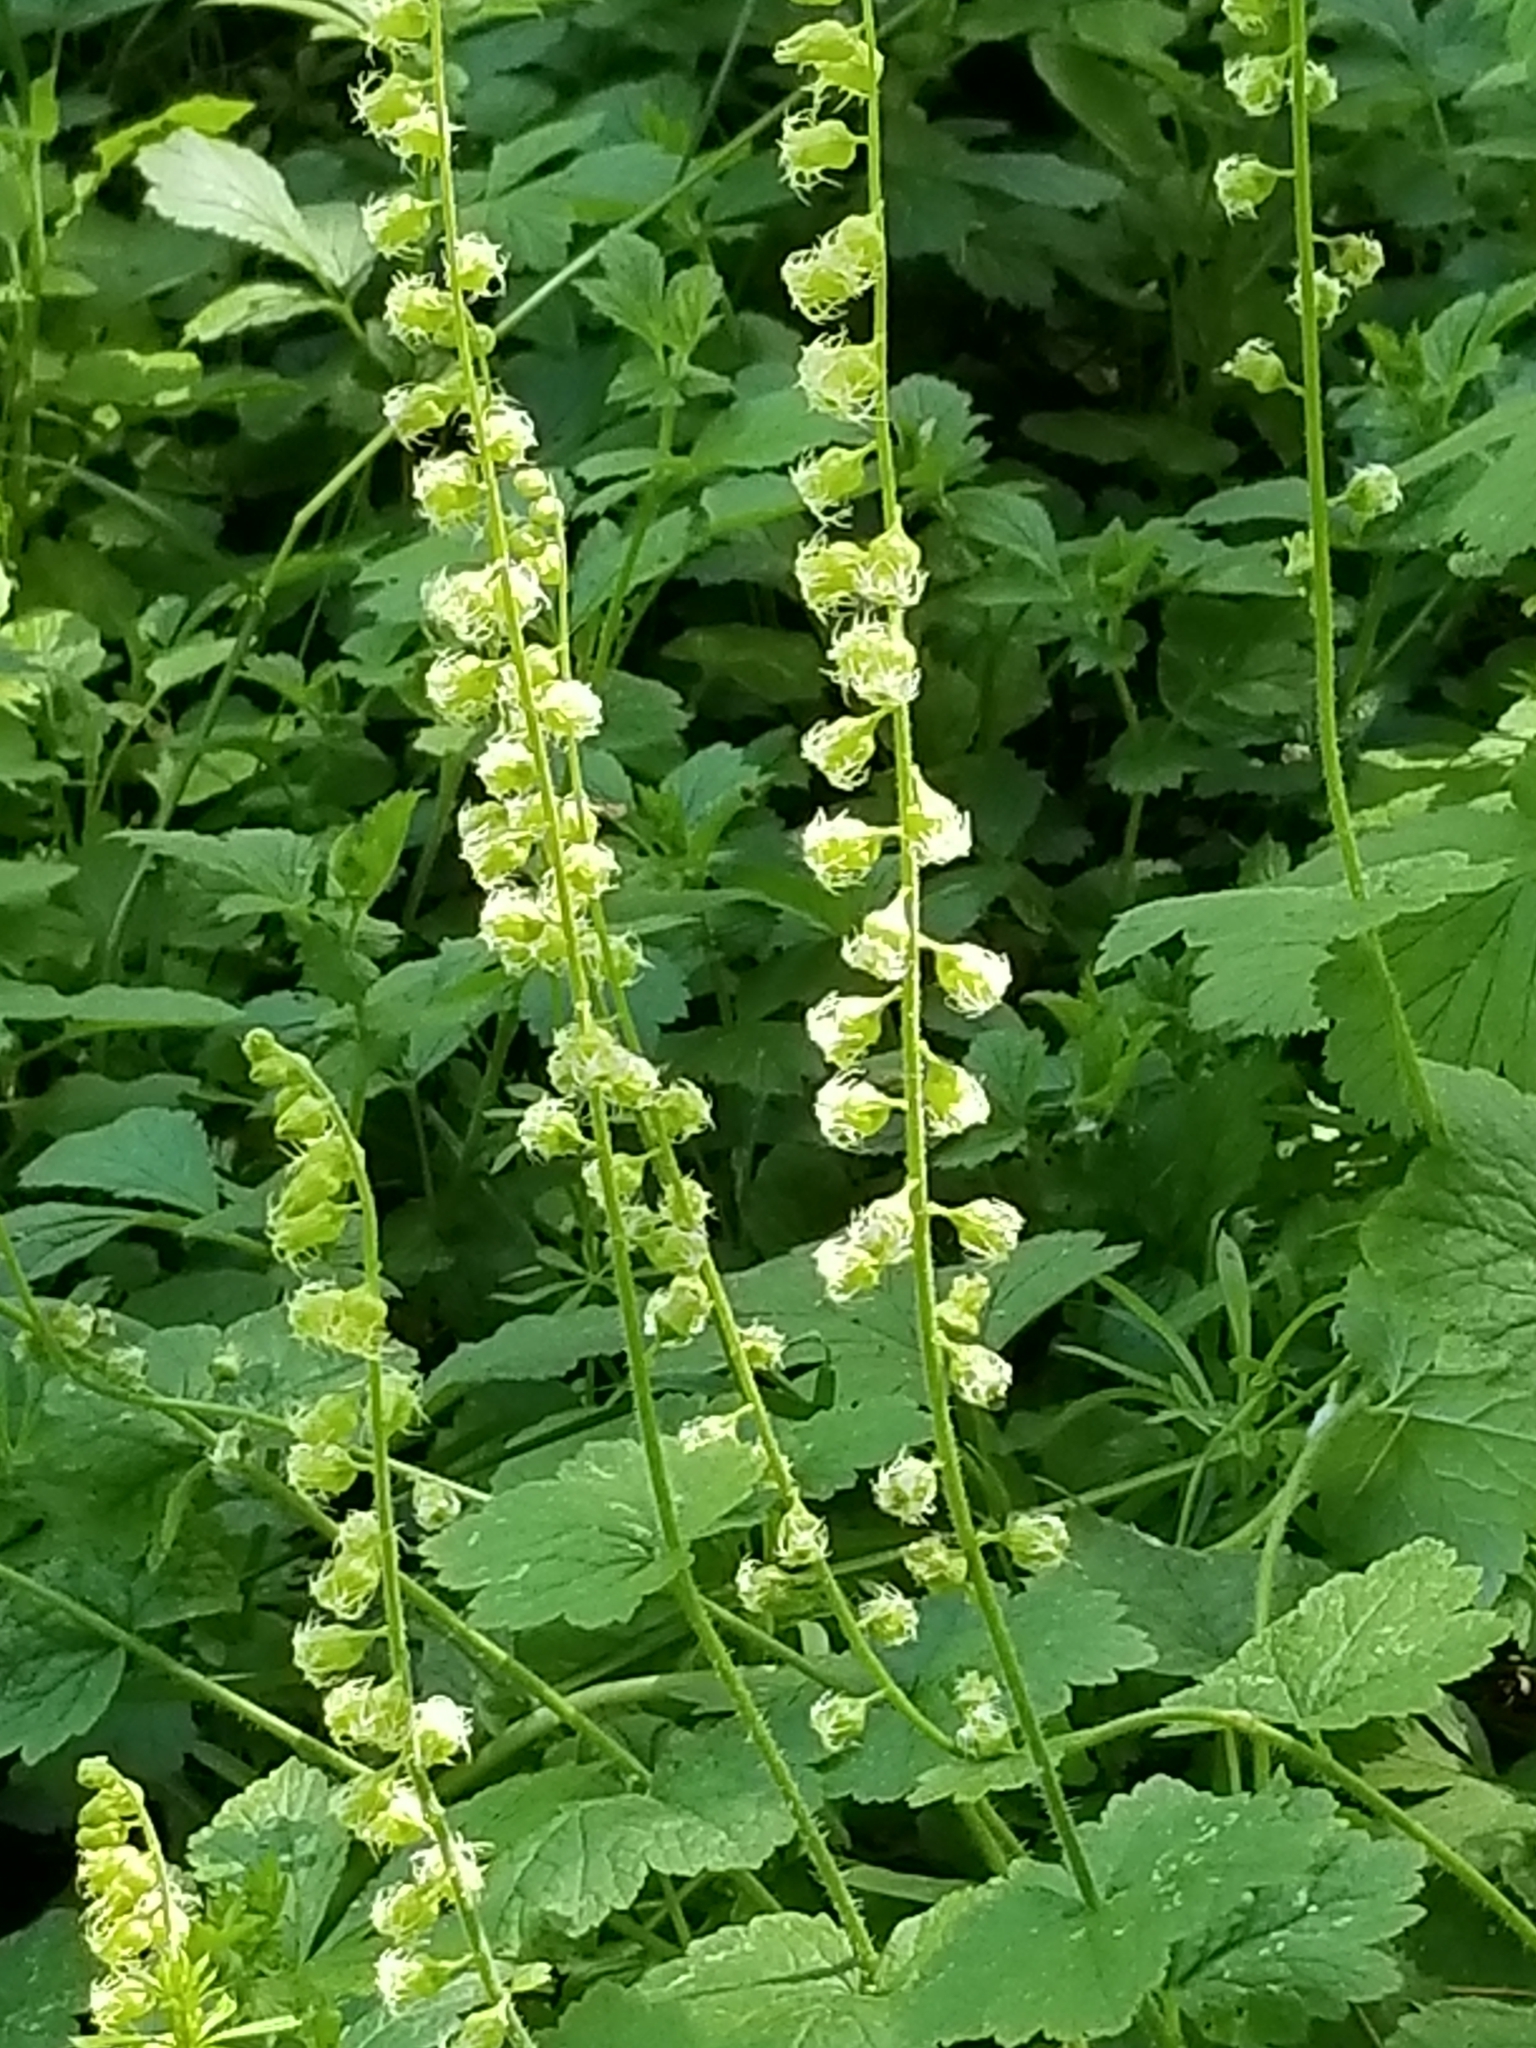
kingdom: Plantae
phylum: Tracheophyta
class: Magnoliopsida
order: Saxifragales
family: Saxifragaceae
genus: Tellima
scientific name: Tellima grandiflora
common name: Fringecups
